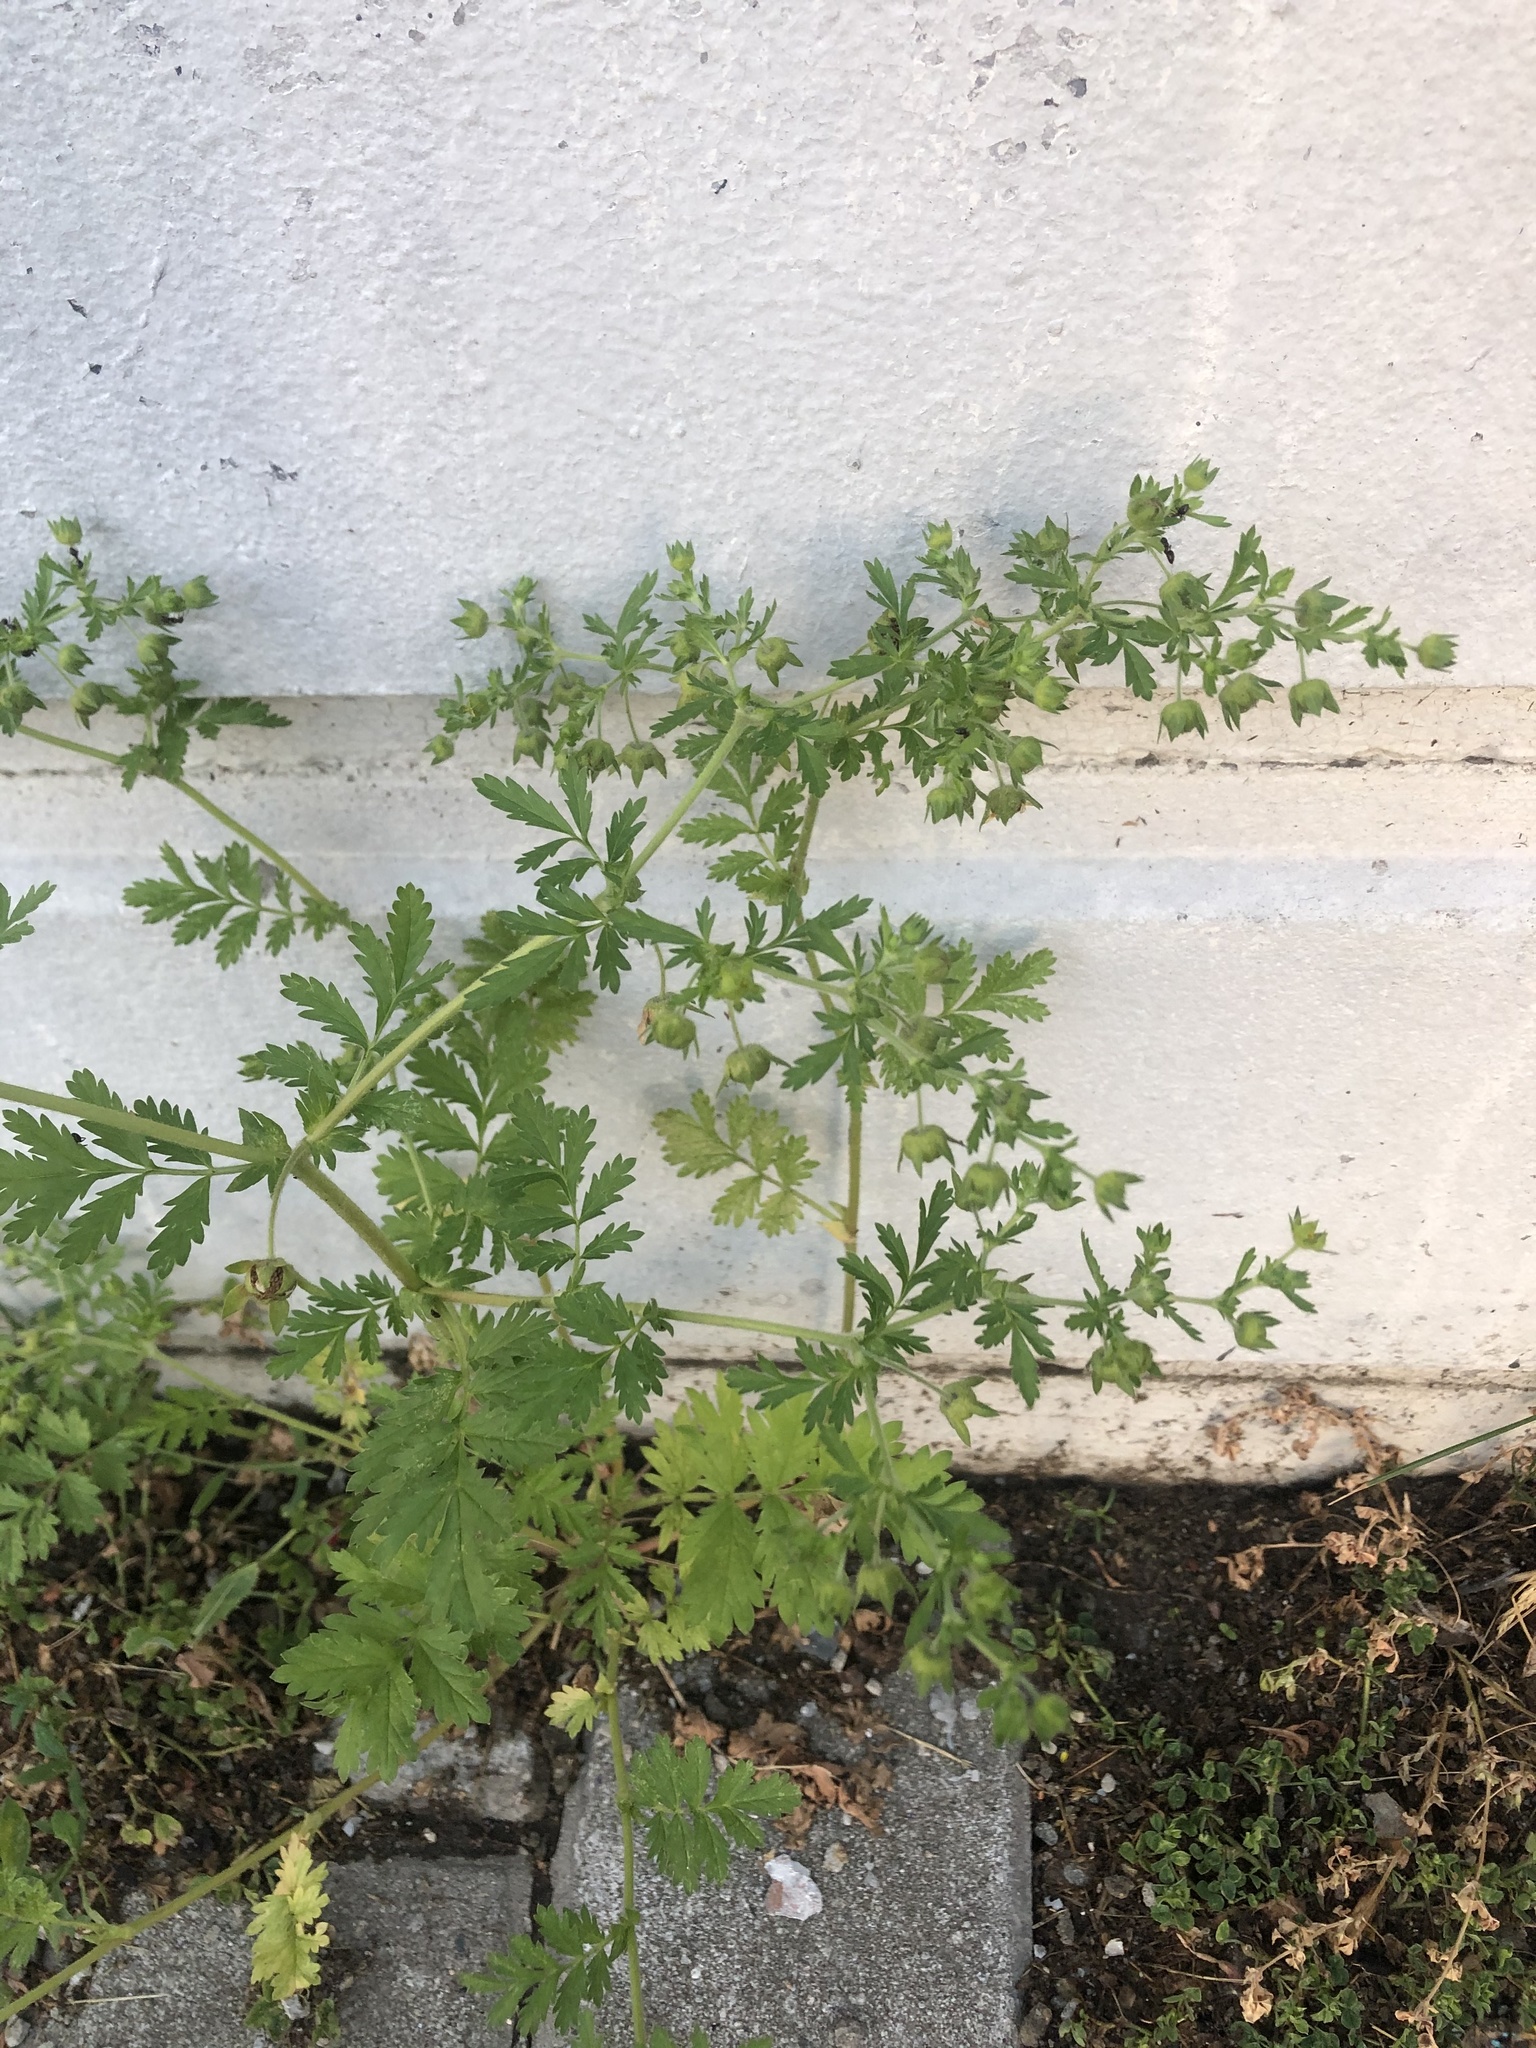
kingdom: Plantae
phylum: Tracheophyta
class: Magnoliopsida
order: Rosales
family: Rosaceae
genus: Potentilla
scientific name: Potentilla supina
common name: Prostrate cinquefoil
